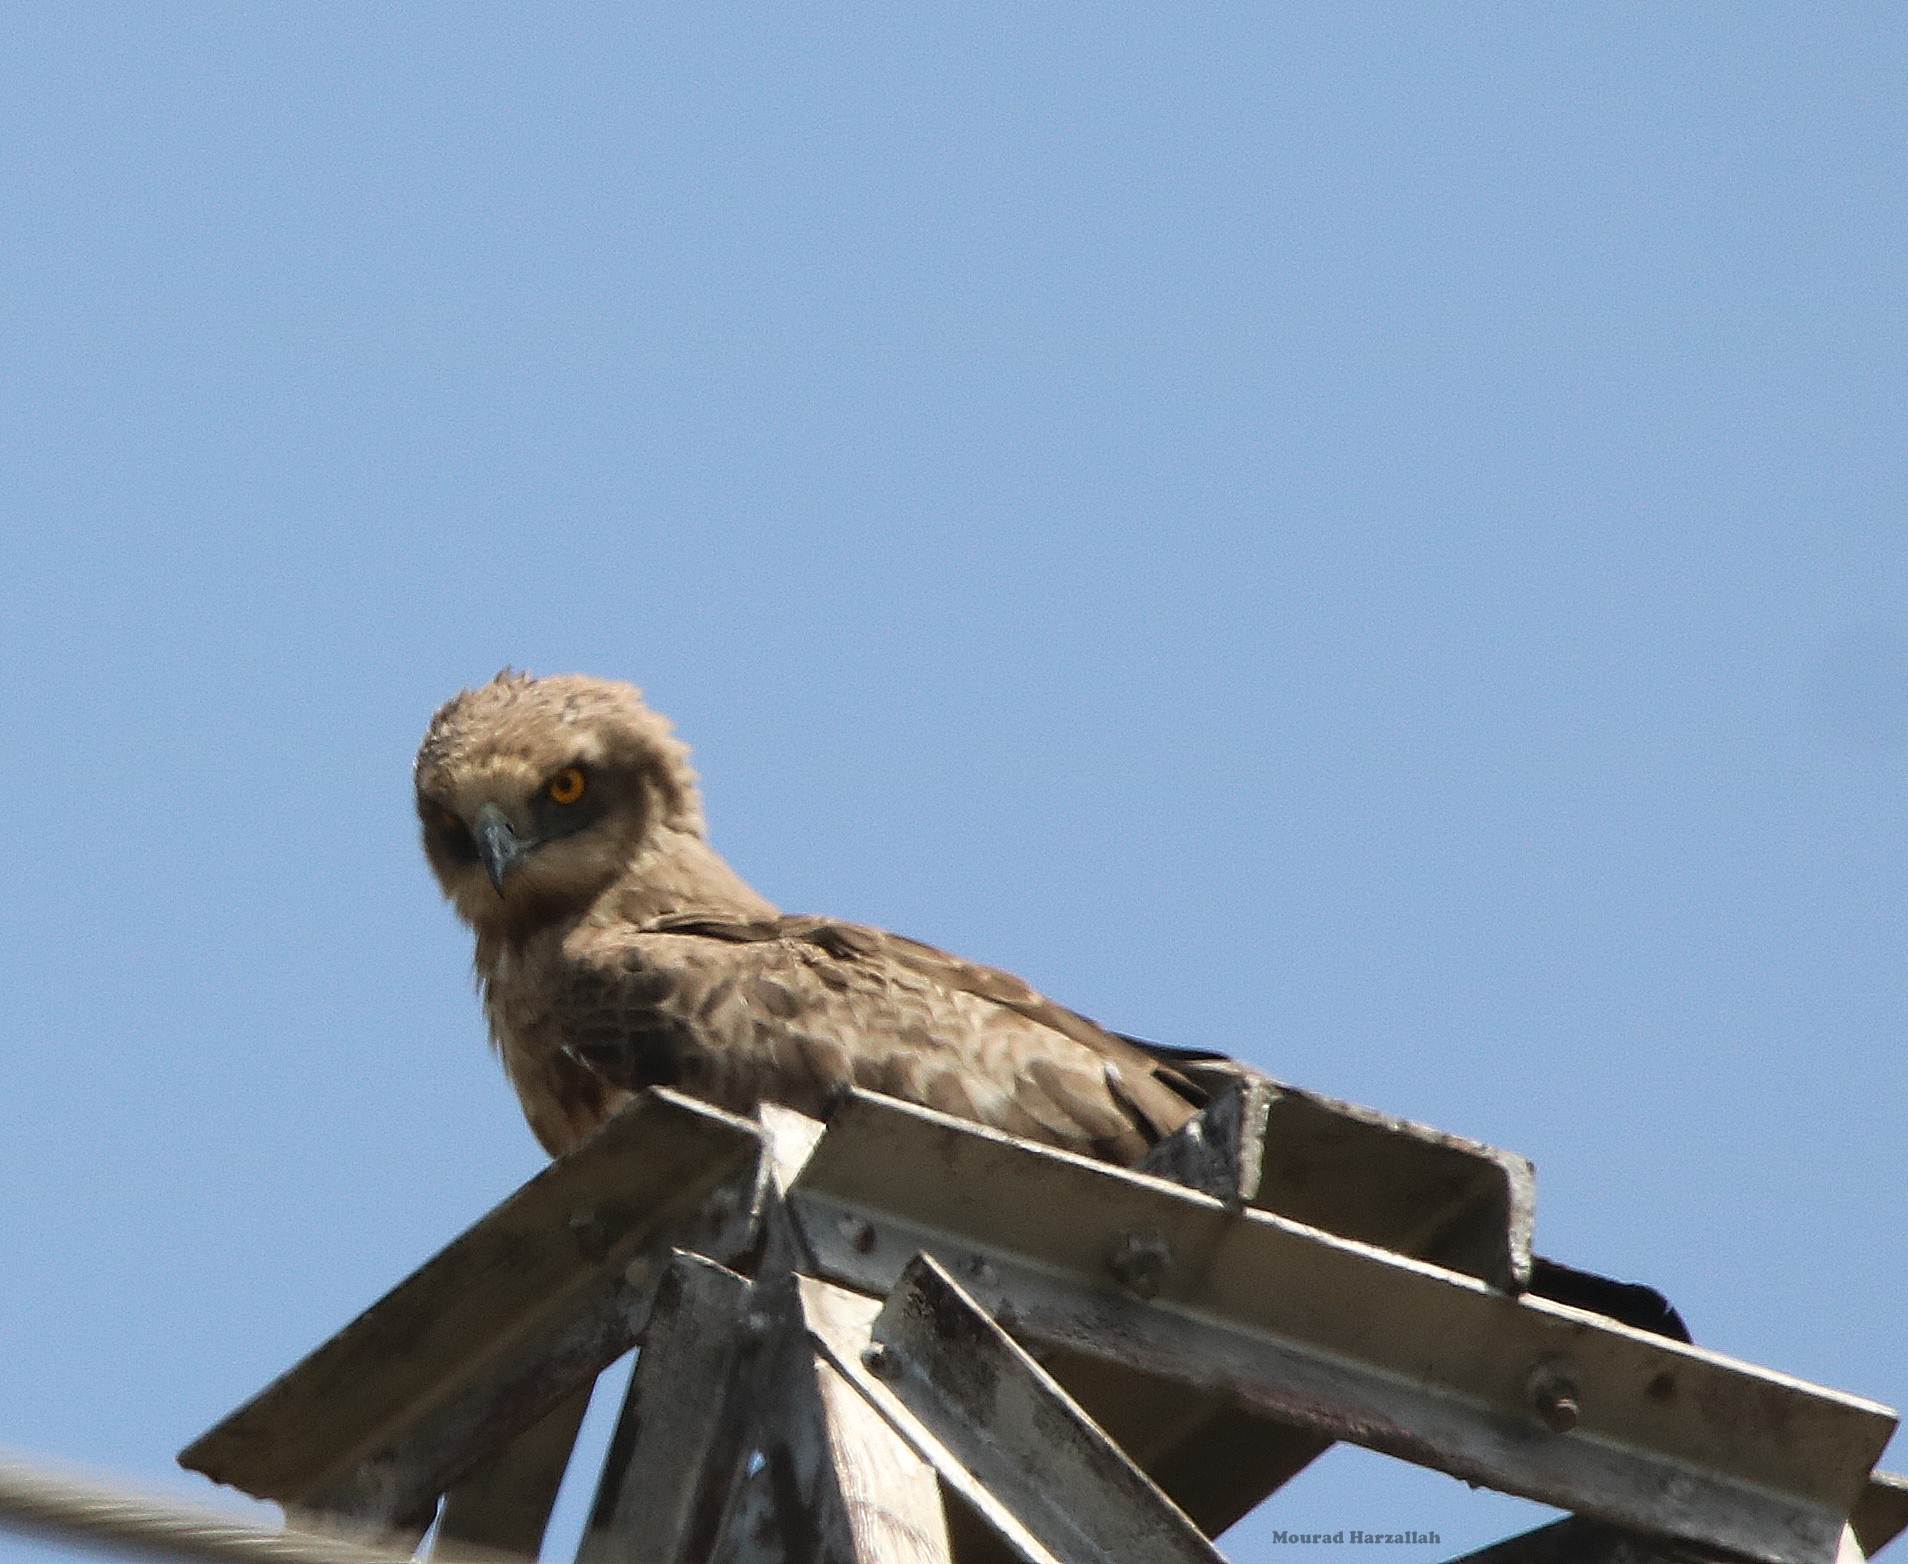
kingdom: Animalia
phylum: Chordata
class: Aves
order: Accipitriformes
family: Accipitridae
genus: Circaetus
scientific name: Circaetus gallicus
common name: Short-toed snake eagle
